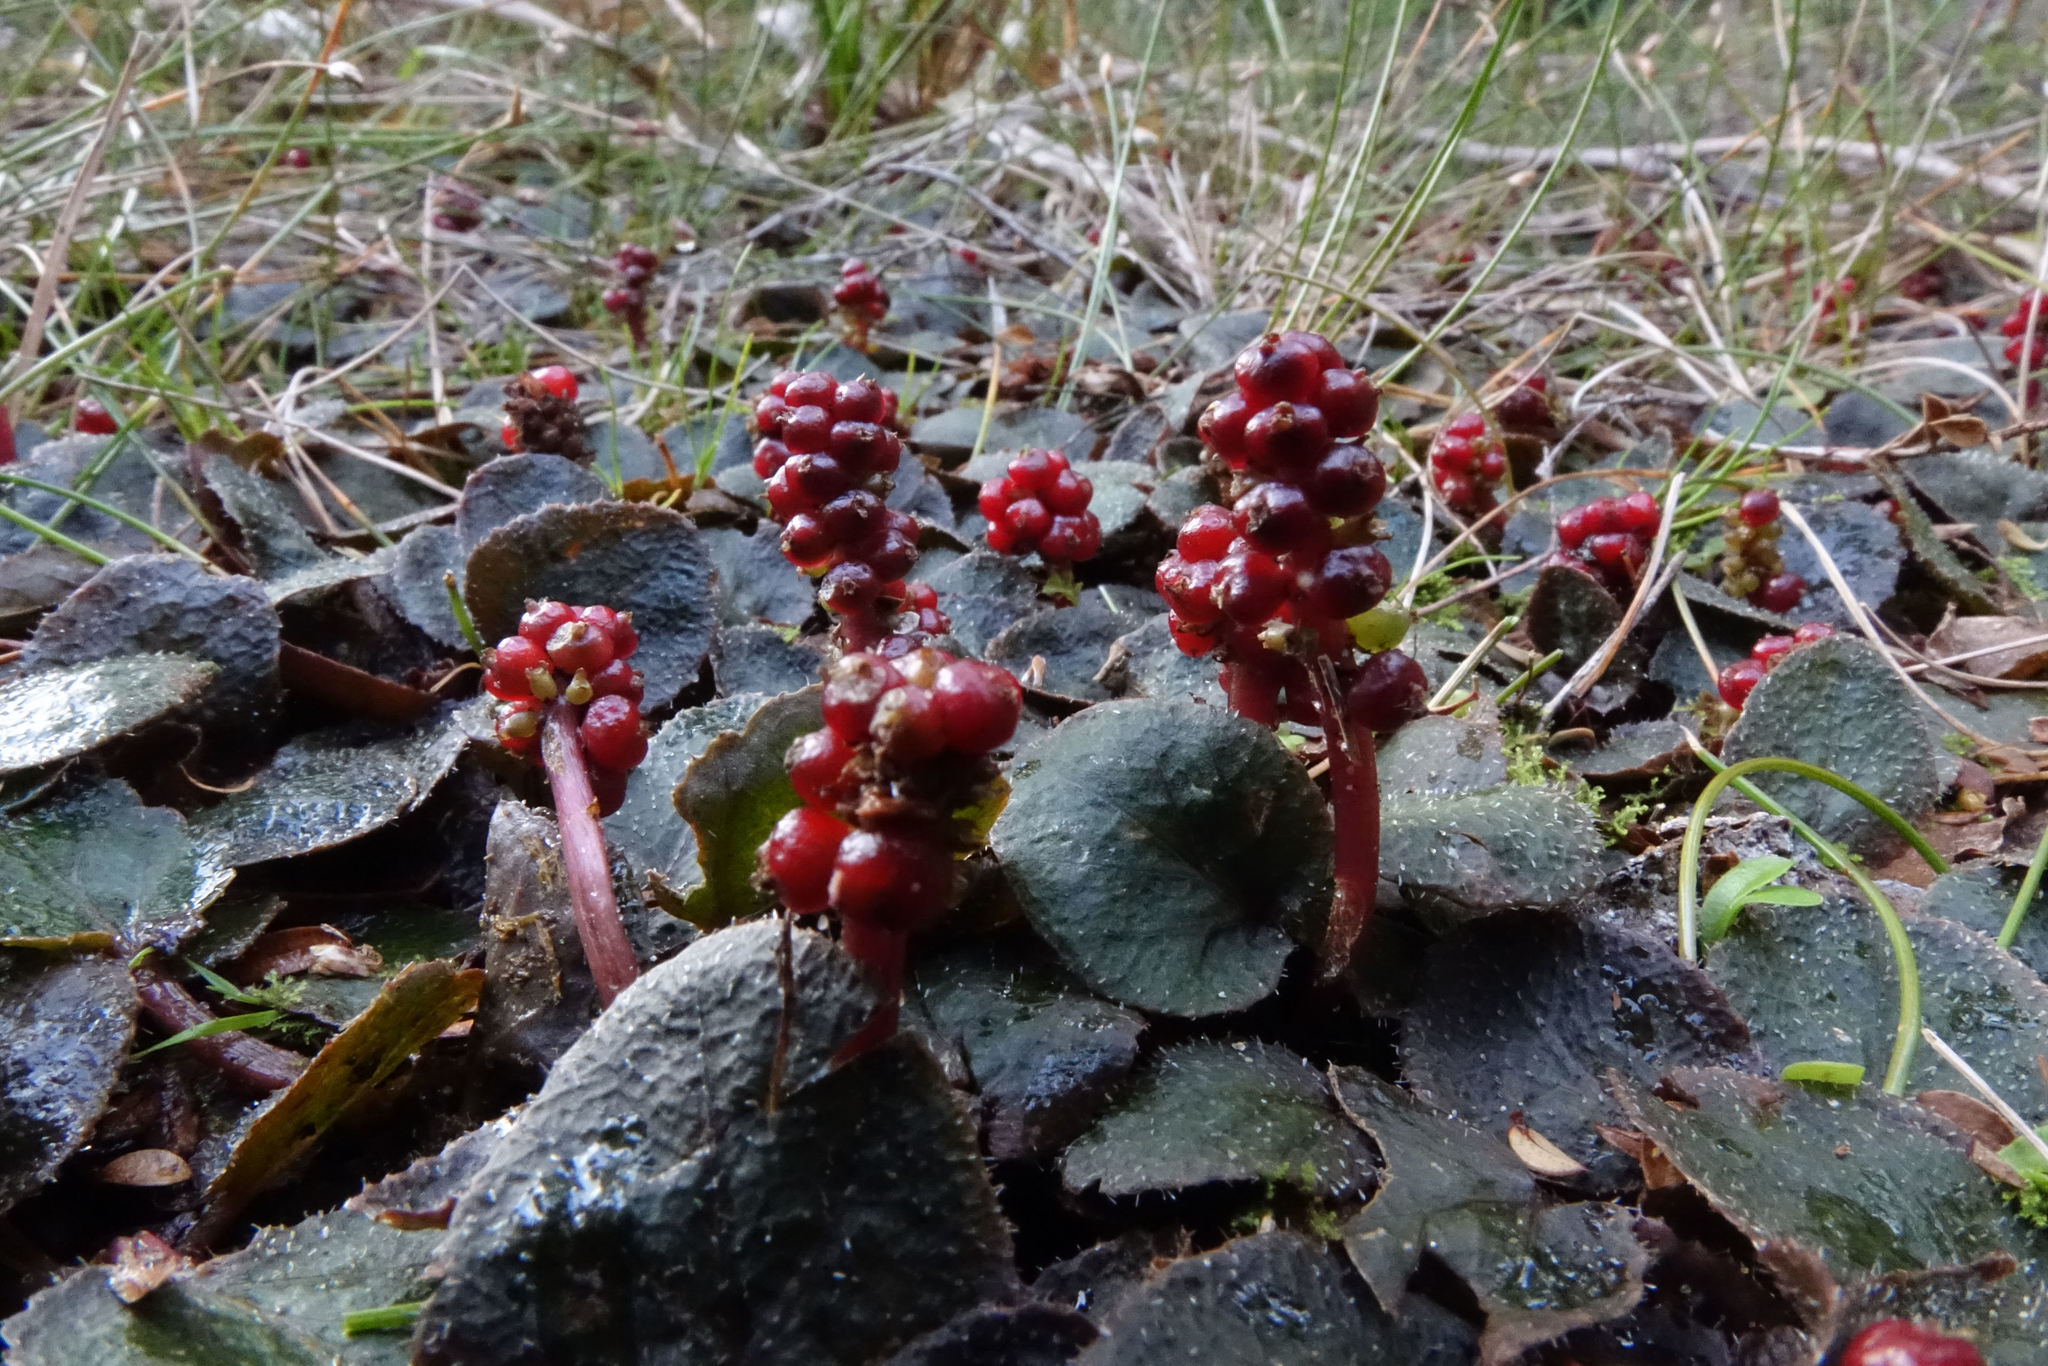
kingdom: Plantae
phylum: Tracheophyta
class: Magnoliopsida
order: Gunnerales
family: Gunneraceae
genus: Gunnera
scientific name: Gunnera prorepens
